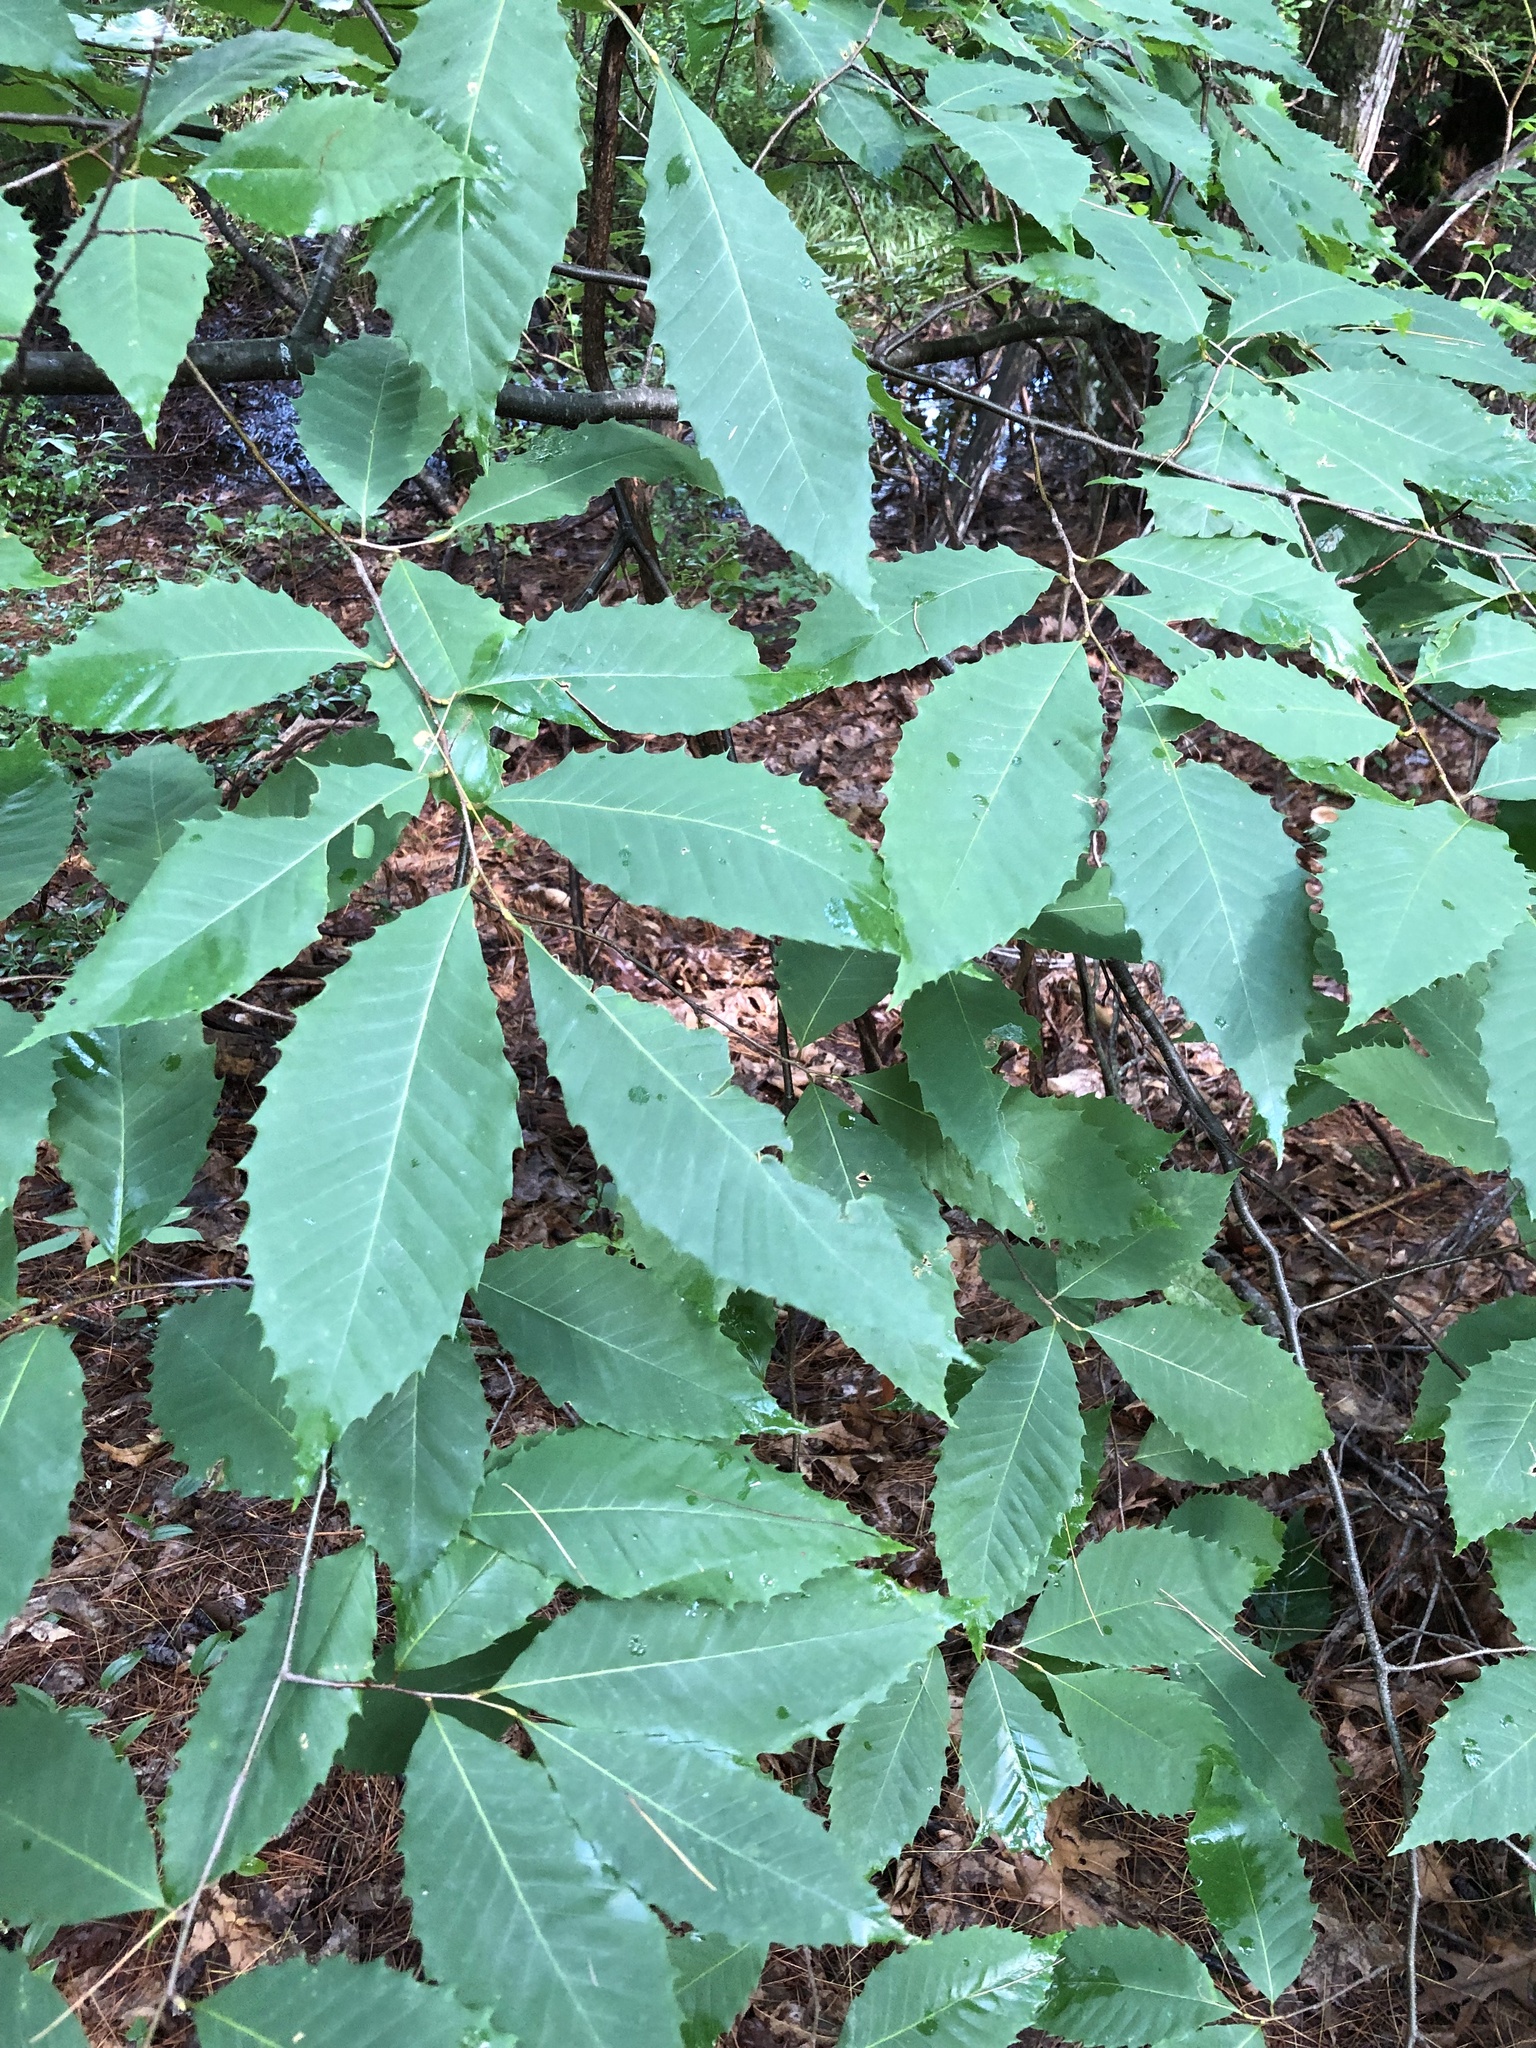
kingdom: Plantae
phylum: Tracheophyta
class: Magnoliopsida
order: Fagales
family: Fagaceae
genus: Castanea
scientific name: Castanea dentata
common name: American chestnut
